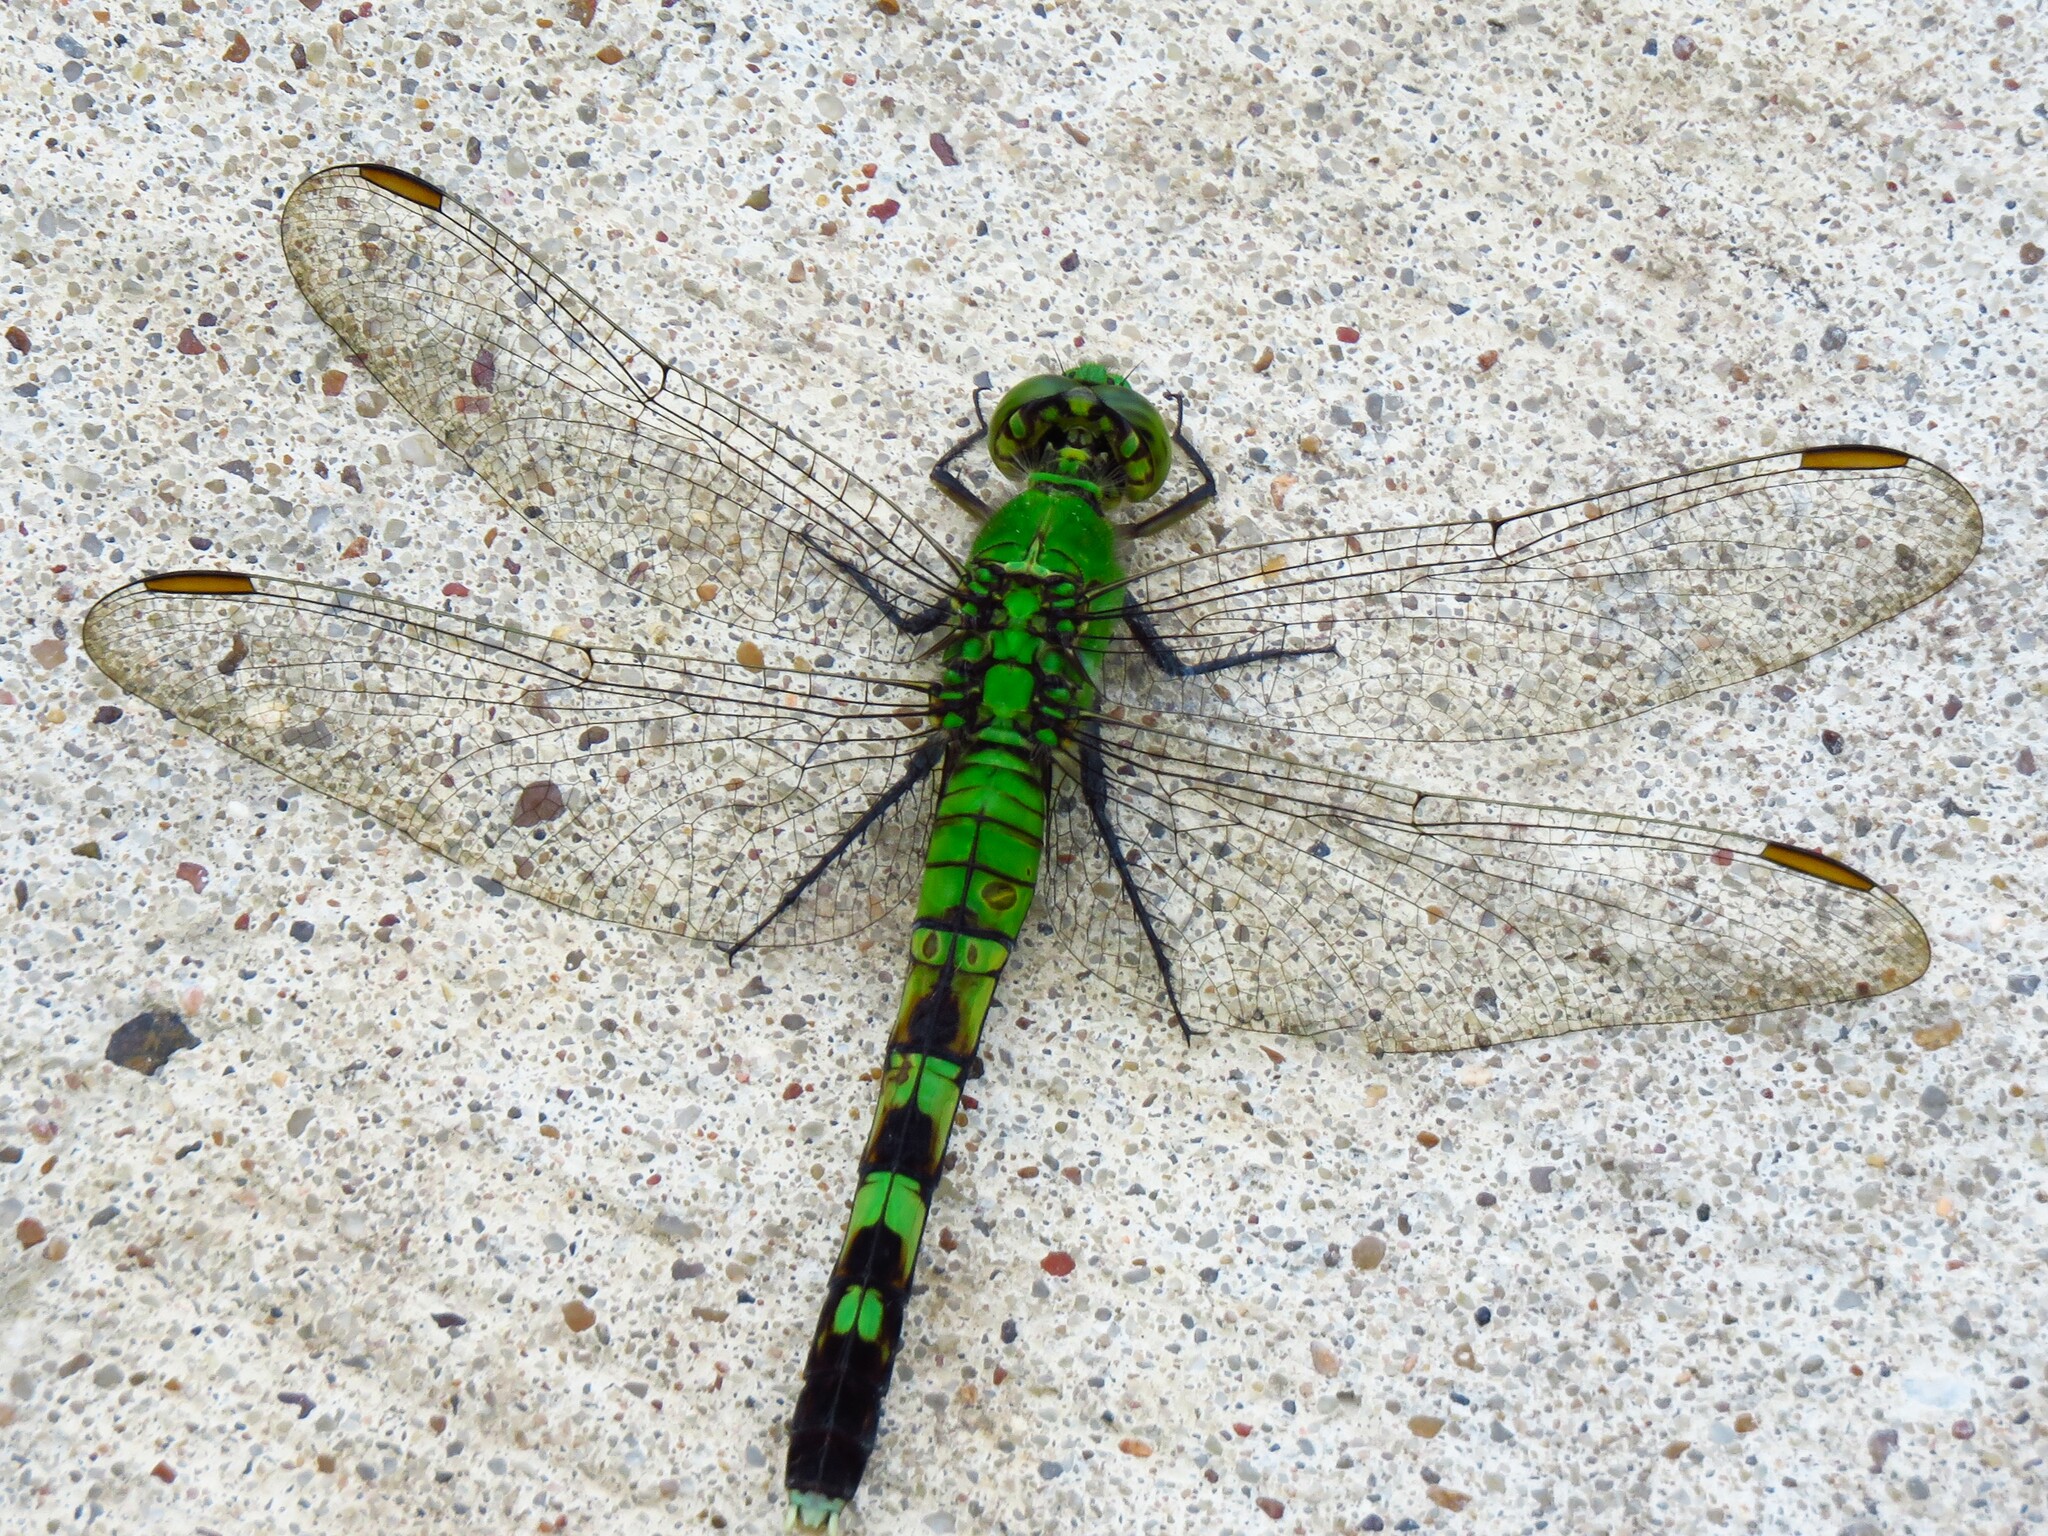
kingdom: Animalia
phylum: Arthropoda
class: Insecta
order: Odonata
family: Libellulidae
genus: Erythemis
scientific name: Erythemis simplicicollis
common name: Eastern pondhawk
